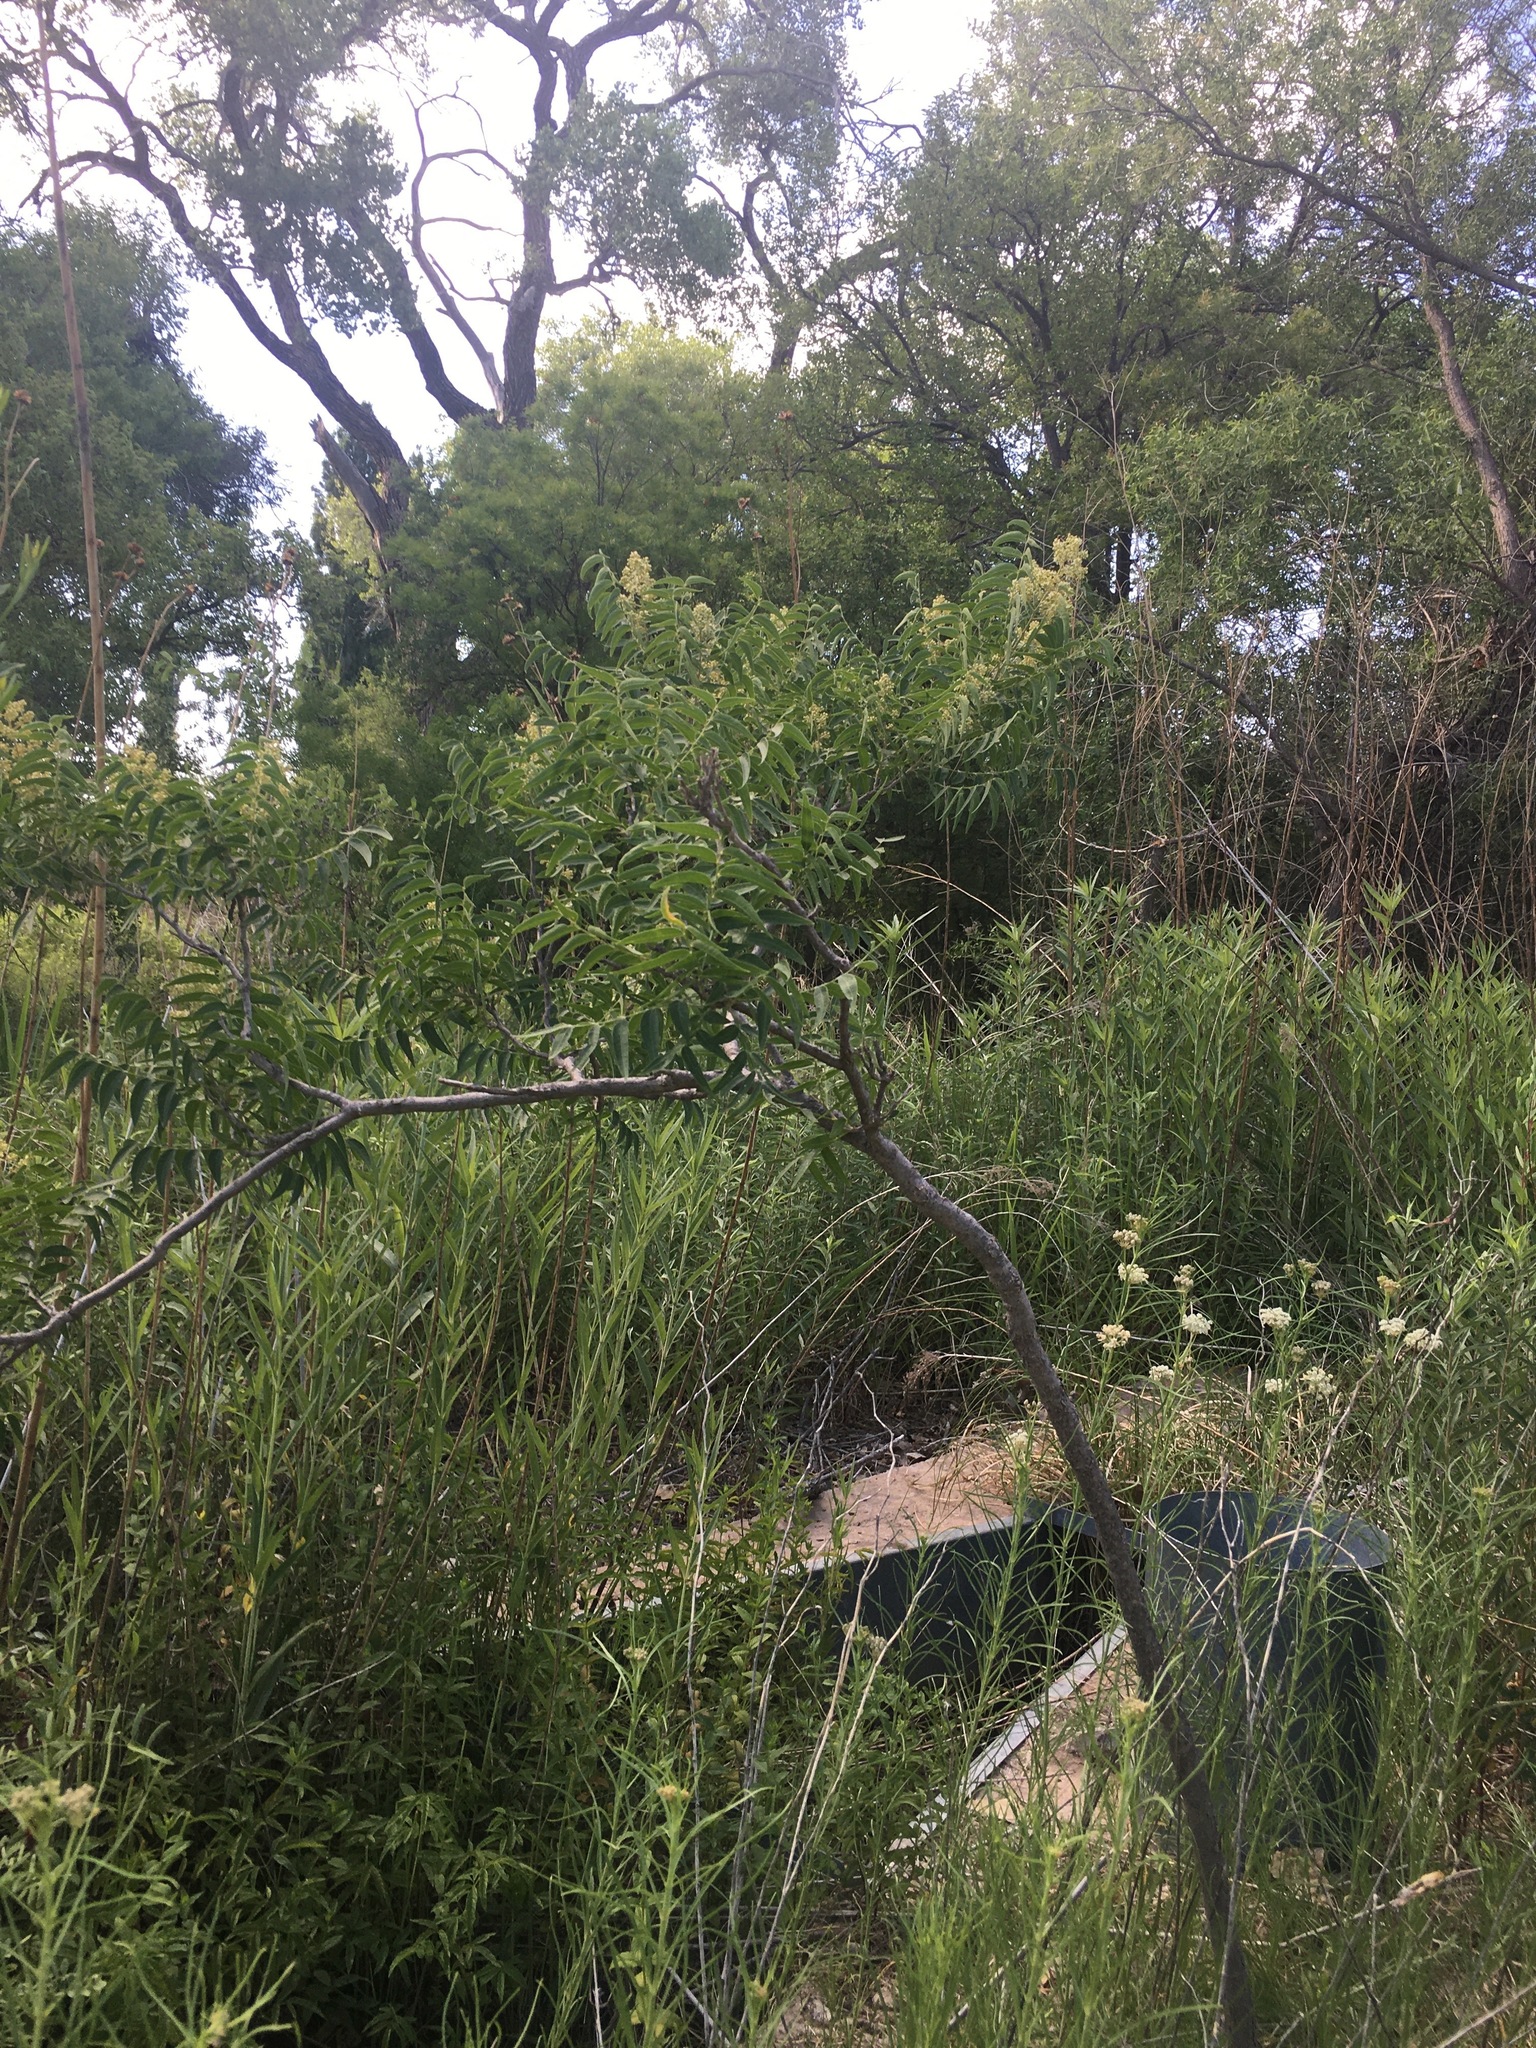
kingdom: Plantae
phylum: Tracheophyta
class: Magnoliopsida
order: Sapindales
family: Sapindaceae
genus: Sapindus
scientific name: Sapindus drummondii
